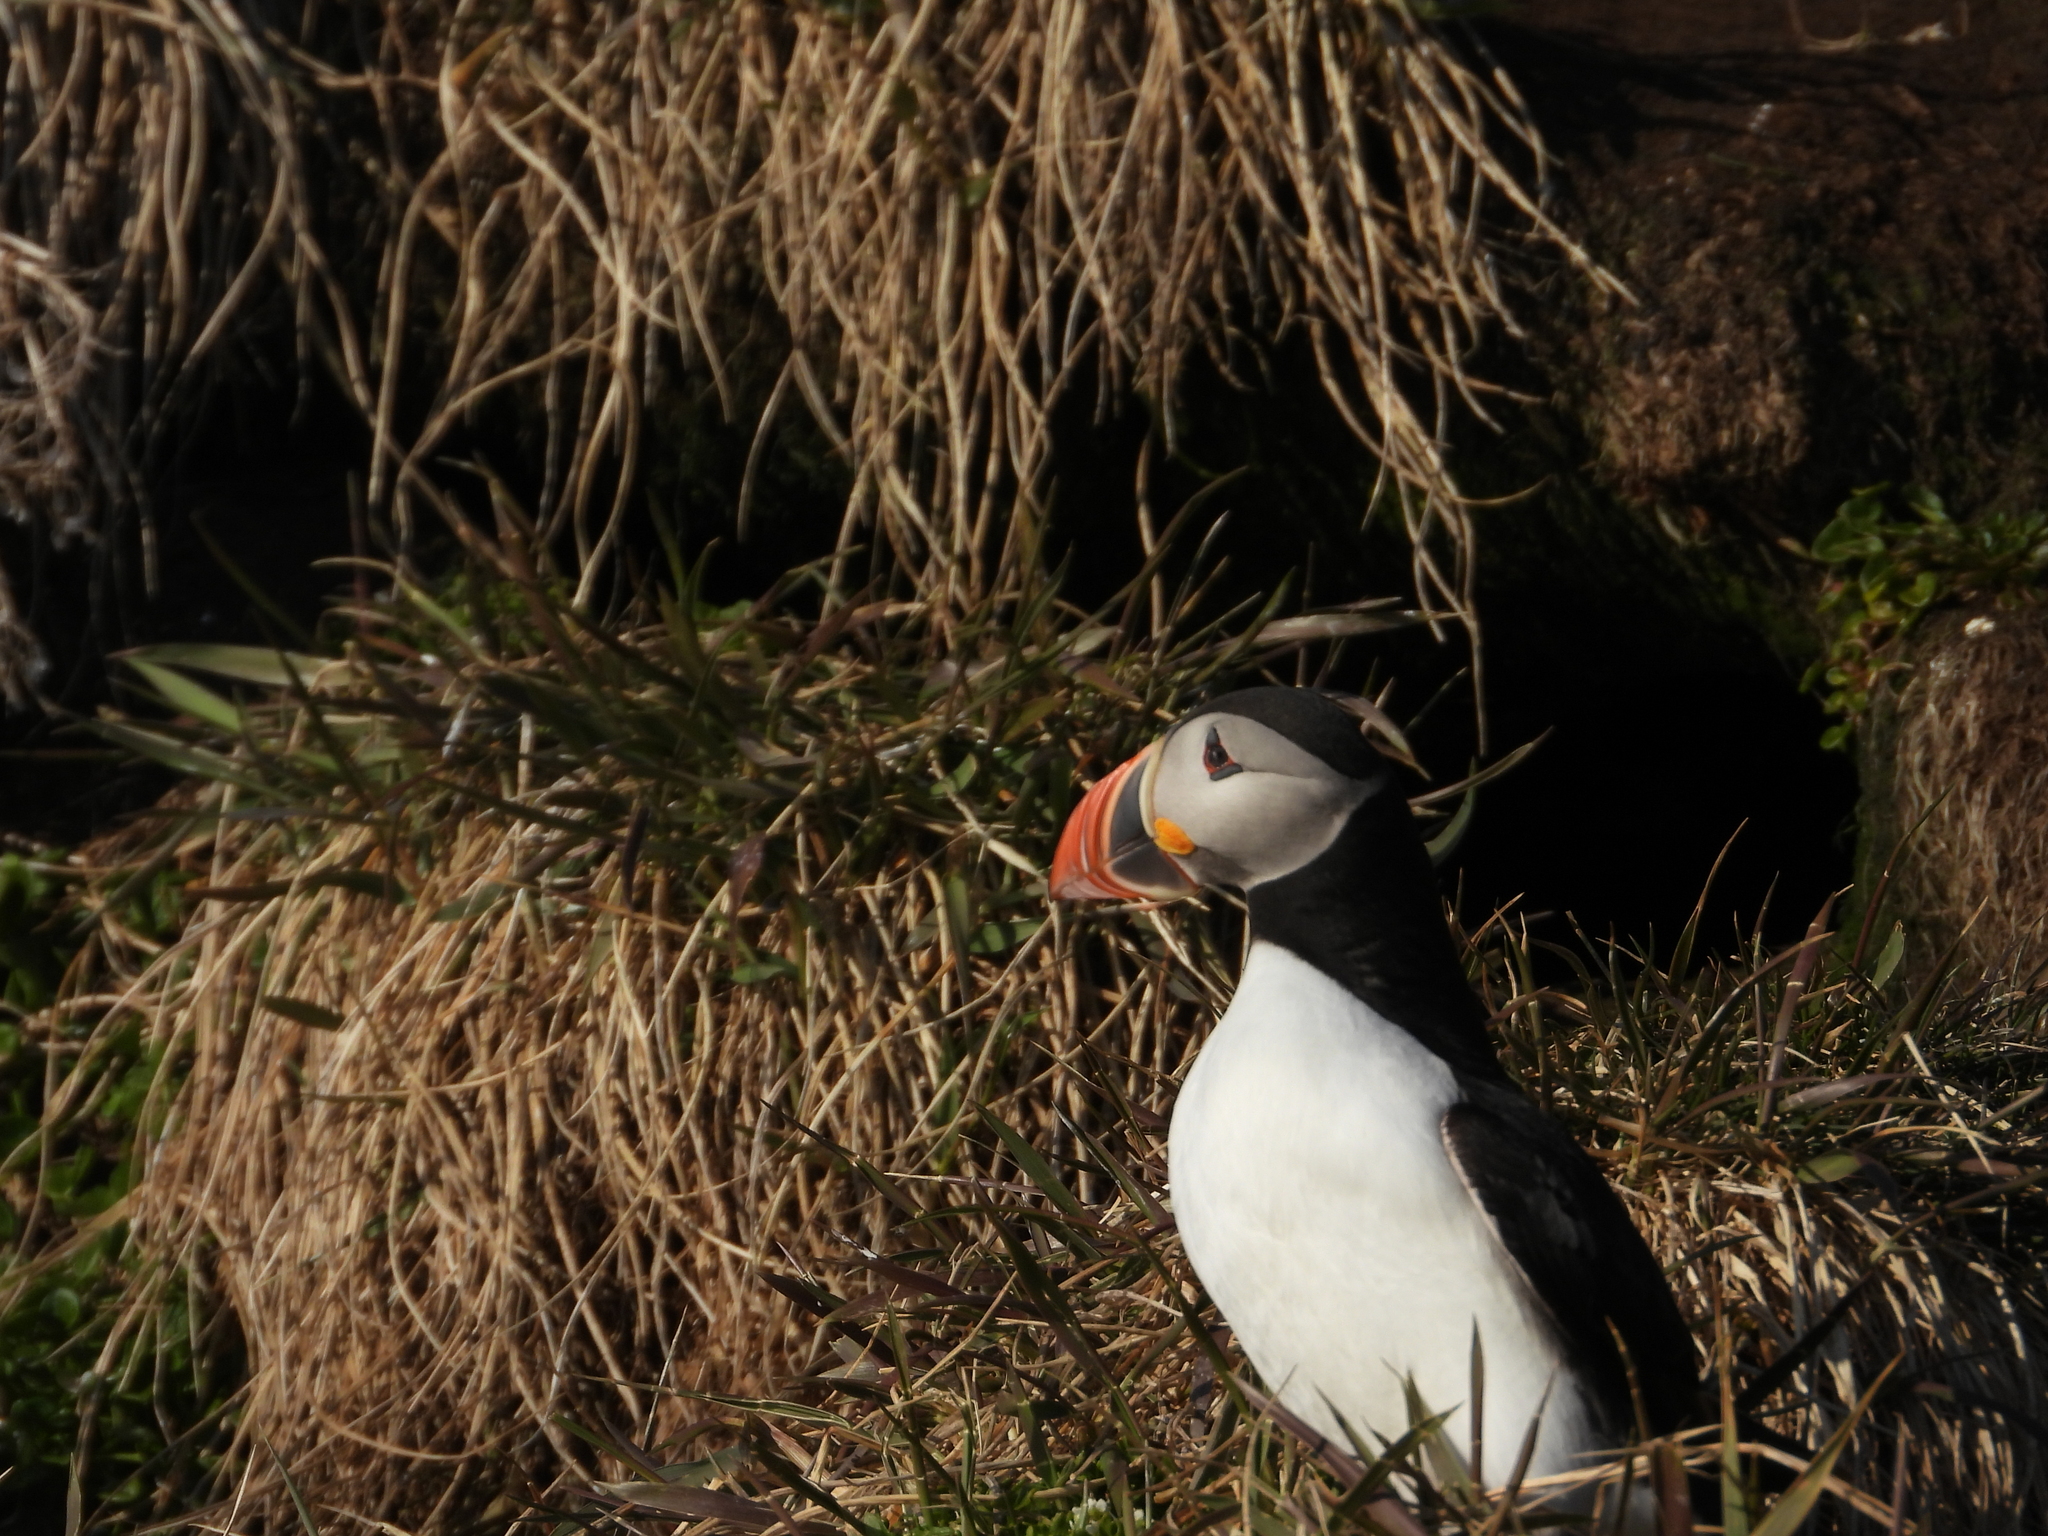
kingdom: Animalia
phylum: Chordata
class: Aves
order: Charadriiformes
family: Alcidae
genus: Fratercula
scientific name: Fratercula arctica
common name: Atlantic puffin
